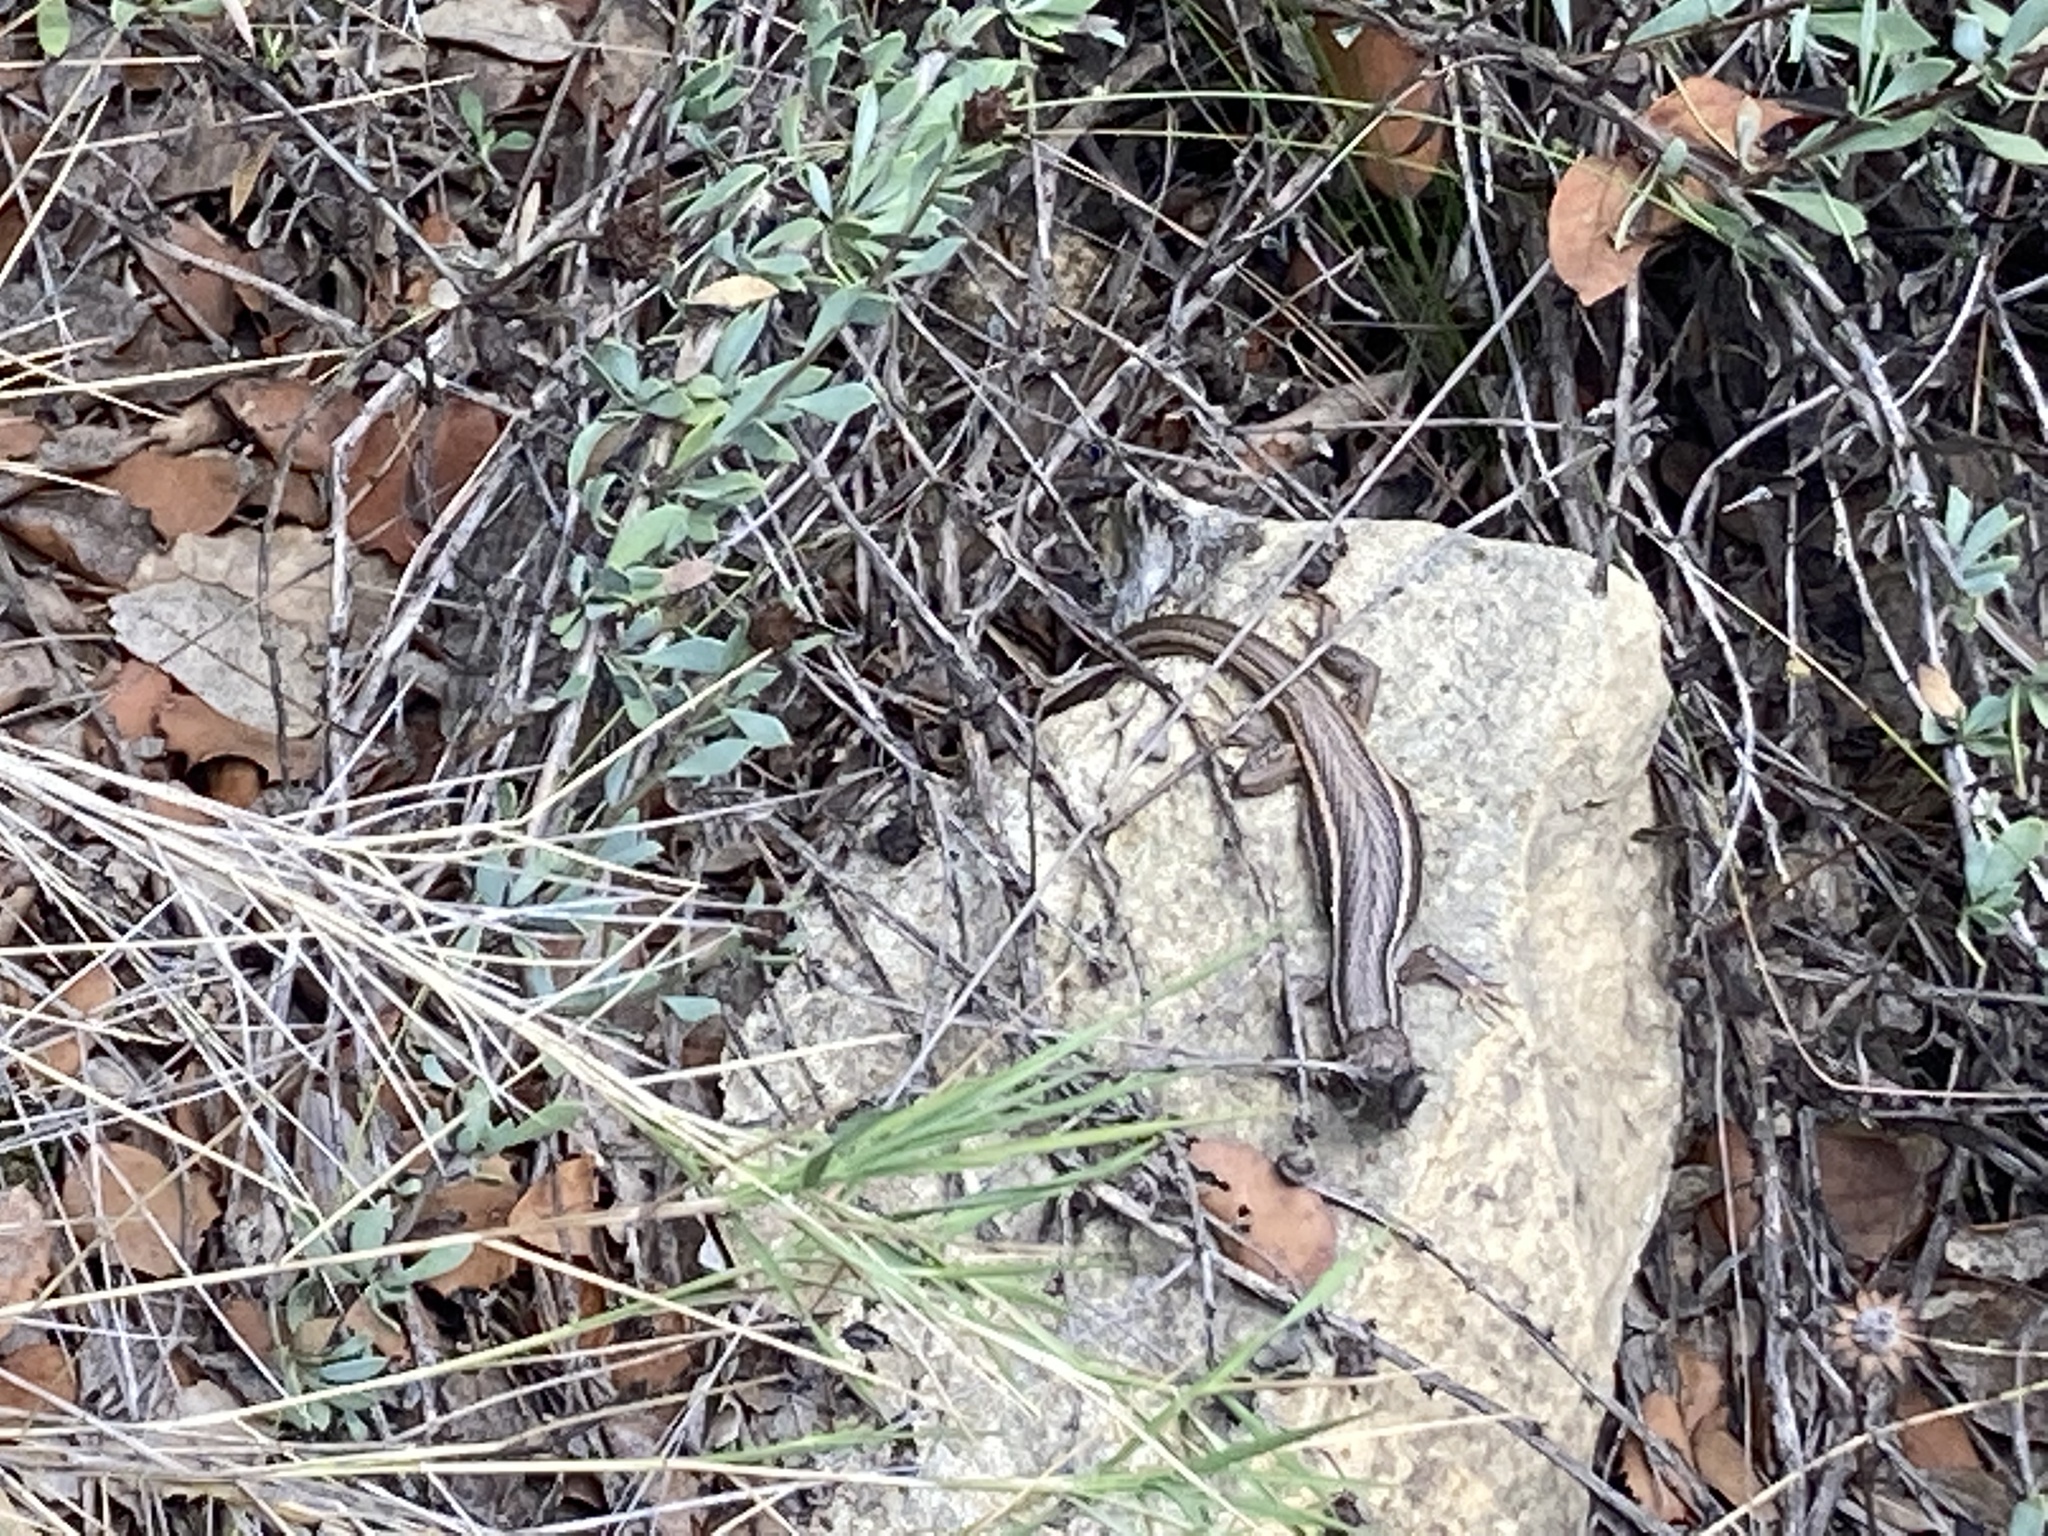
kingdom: Animalia
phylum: Chordata
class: Squamata
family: Lacertidae
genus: Psammodromus
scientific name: Psammodromus algirus
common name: Algerian psammodromus
